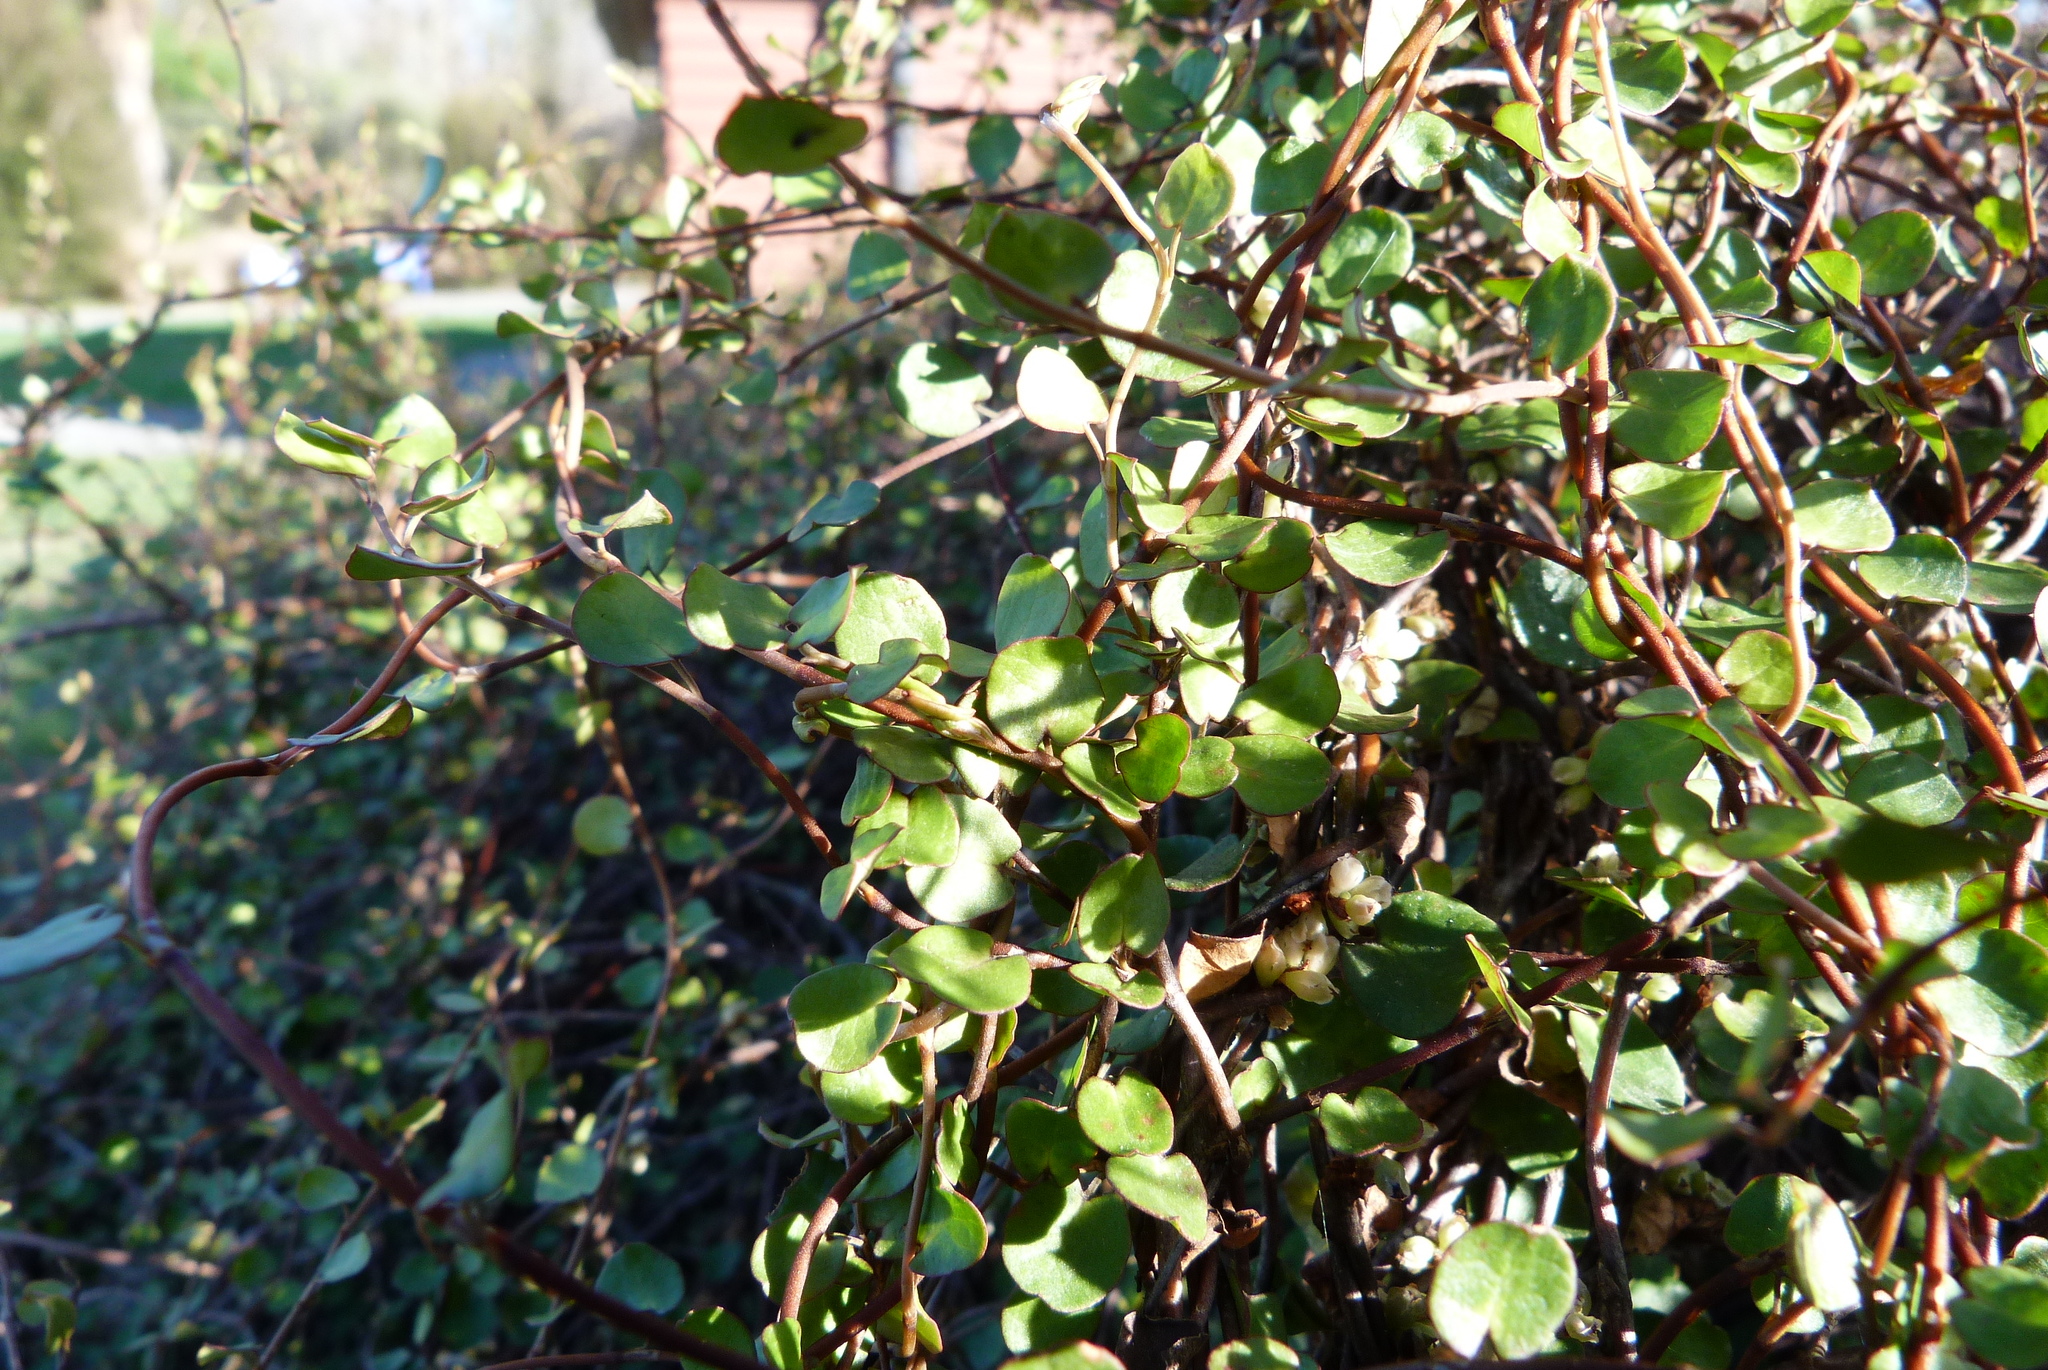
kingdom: Plantae
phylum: Tracheophyta
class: Magnoliopsida
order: Caryophyllales
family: Polygonaceae
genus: Muehlenbeckia
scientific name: Muehlenbeckia complexa
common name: Wireplant
